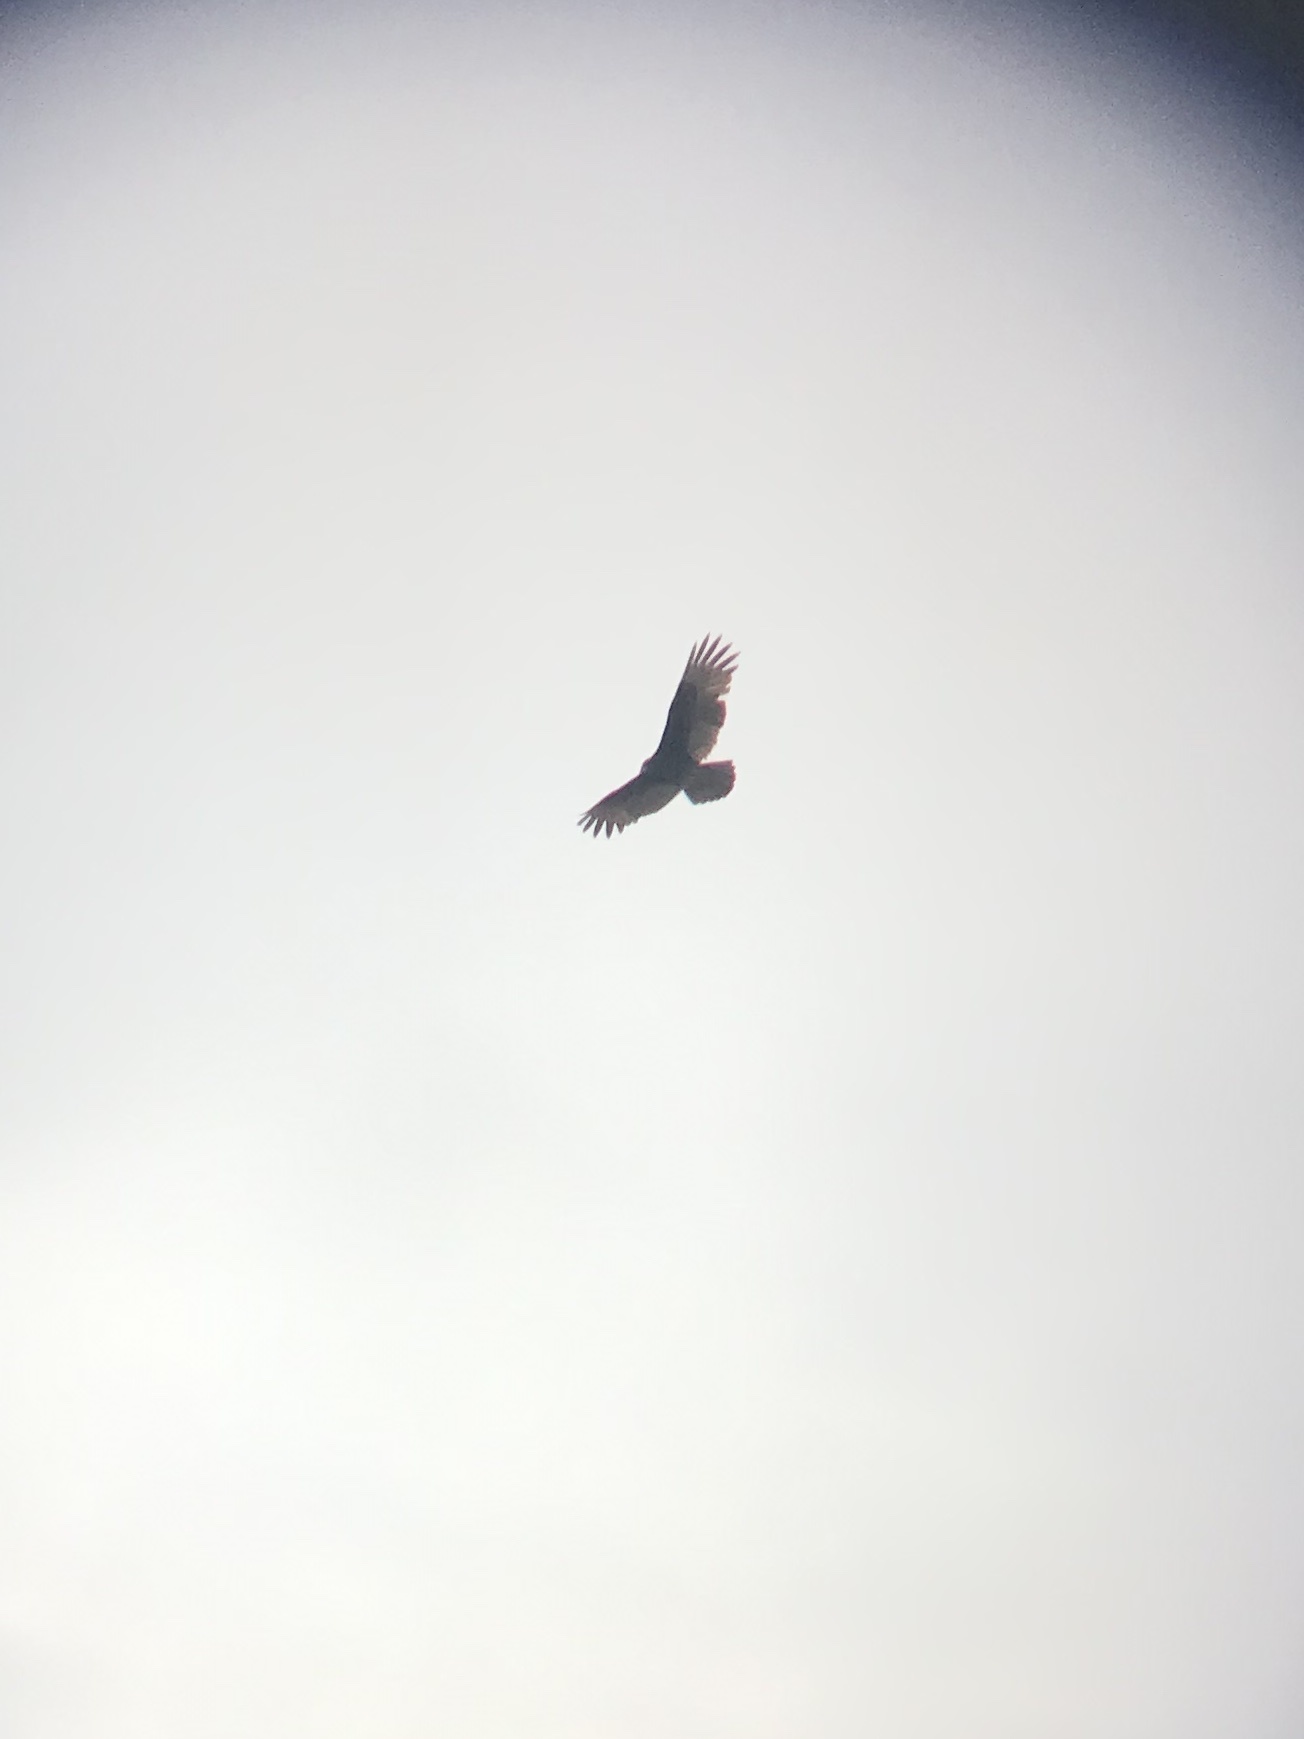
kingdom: Animalia
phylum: Chordata
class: Aves
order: Accipitriformes
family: Cathartidae
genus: Cathartes
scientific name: Cathartes aura
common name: Turkey vulture
